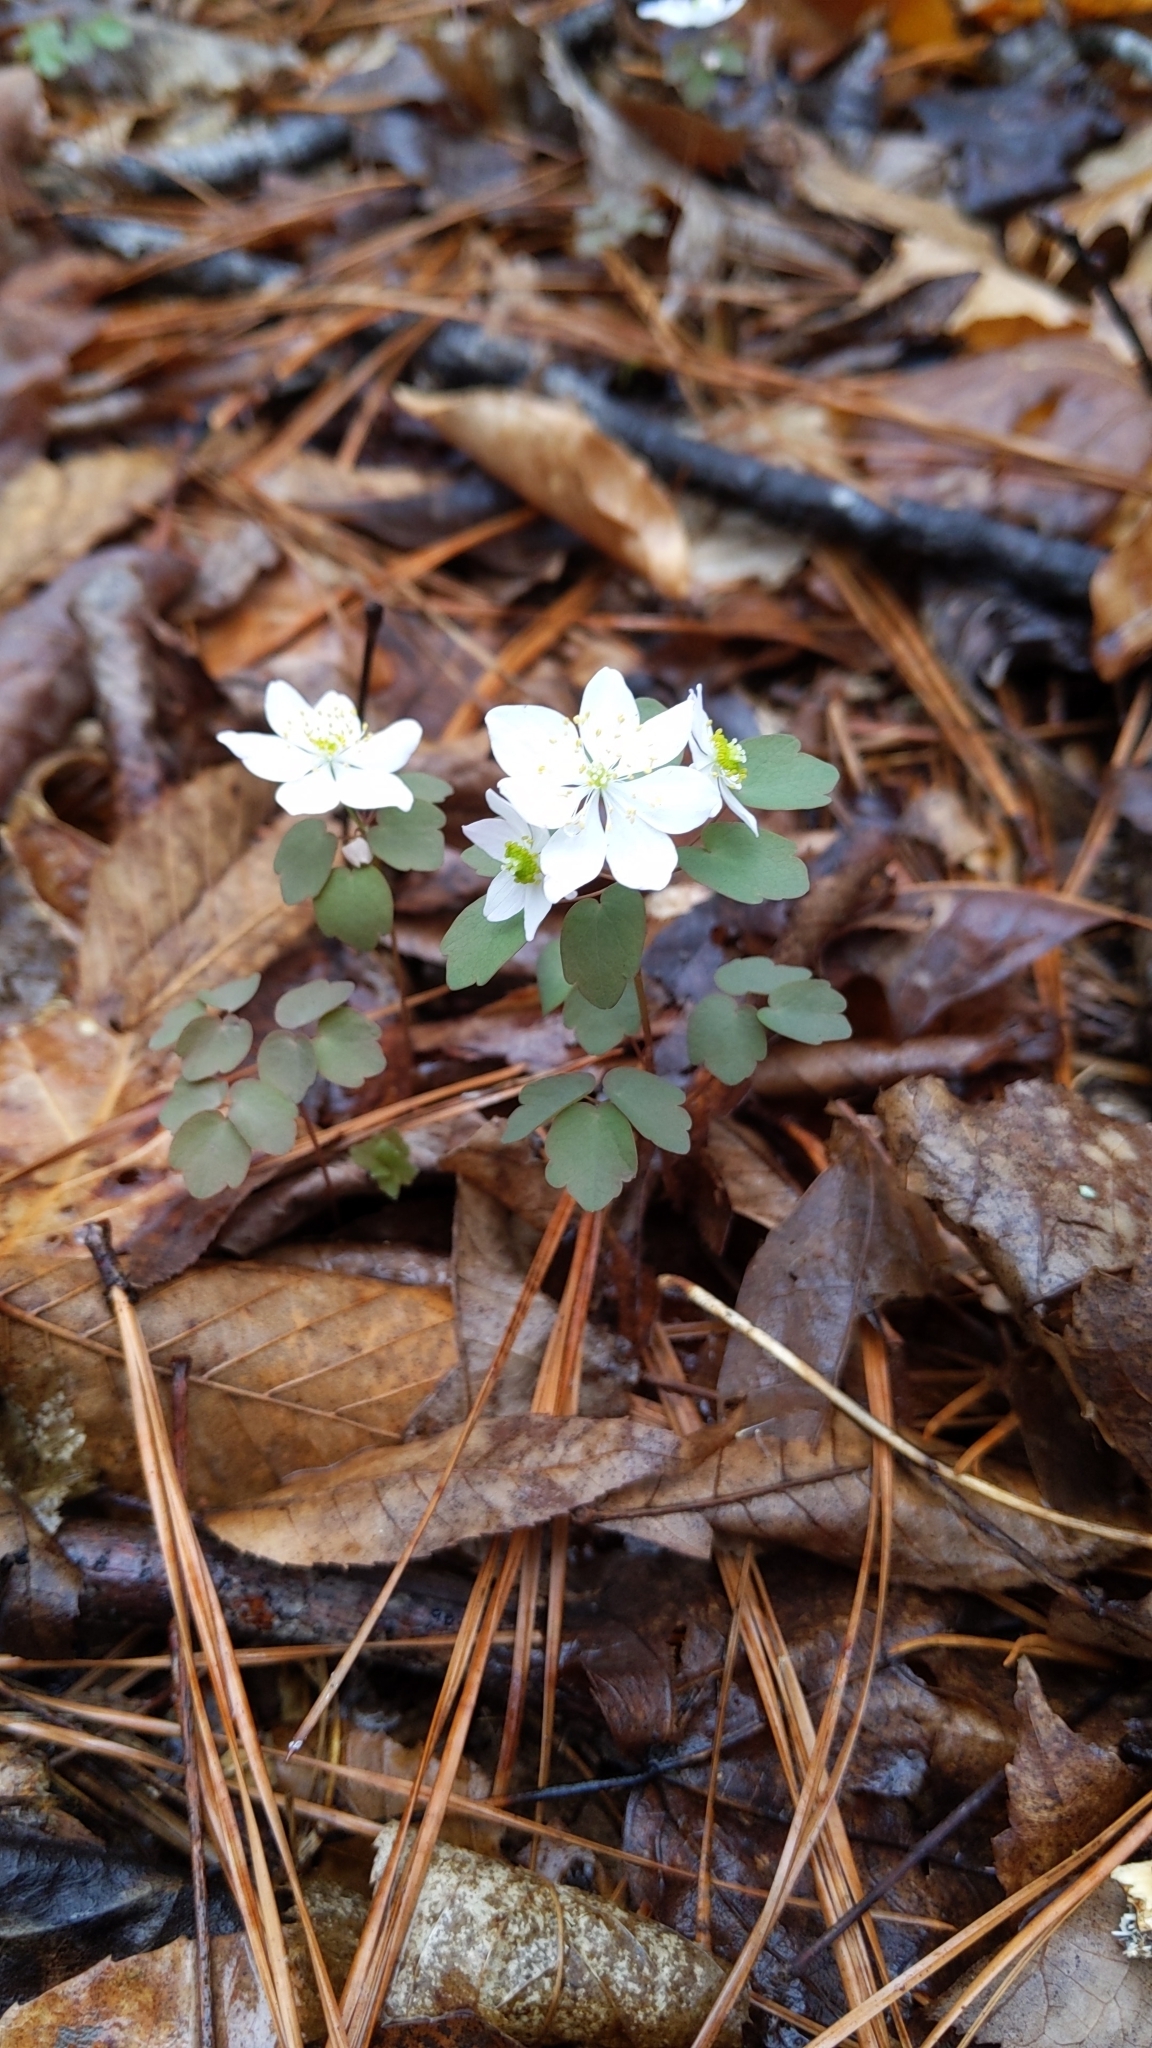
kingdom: Plantae
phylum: Tracheophyta
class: Magnoliopsida
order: Ranunculales
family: Ranunculaceae
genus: Thalictrum
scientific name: Thalictrum thalictroides
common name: Rue-anemone
